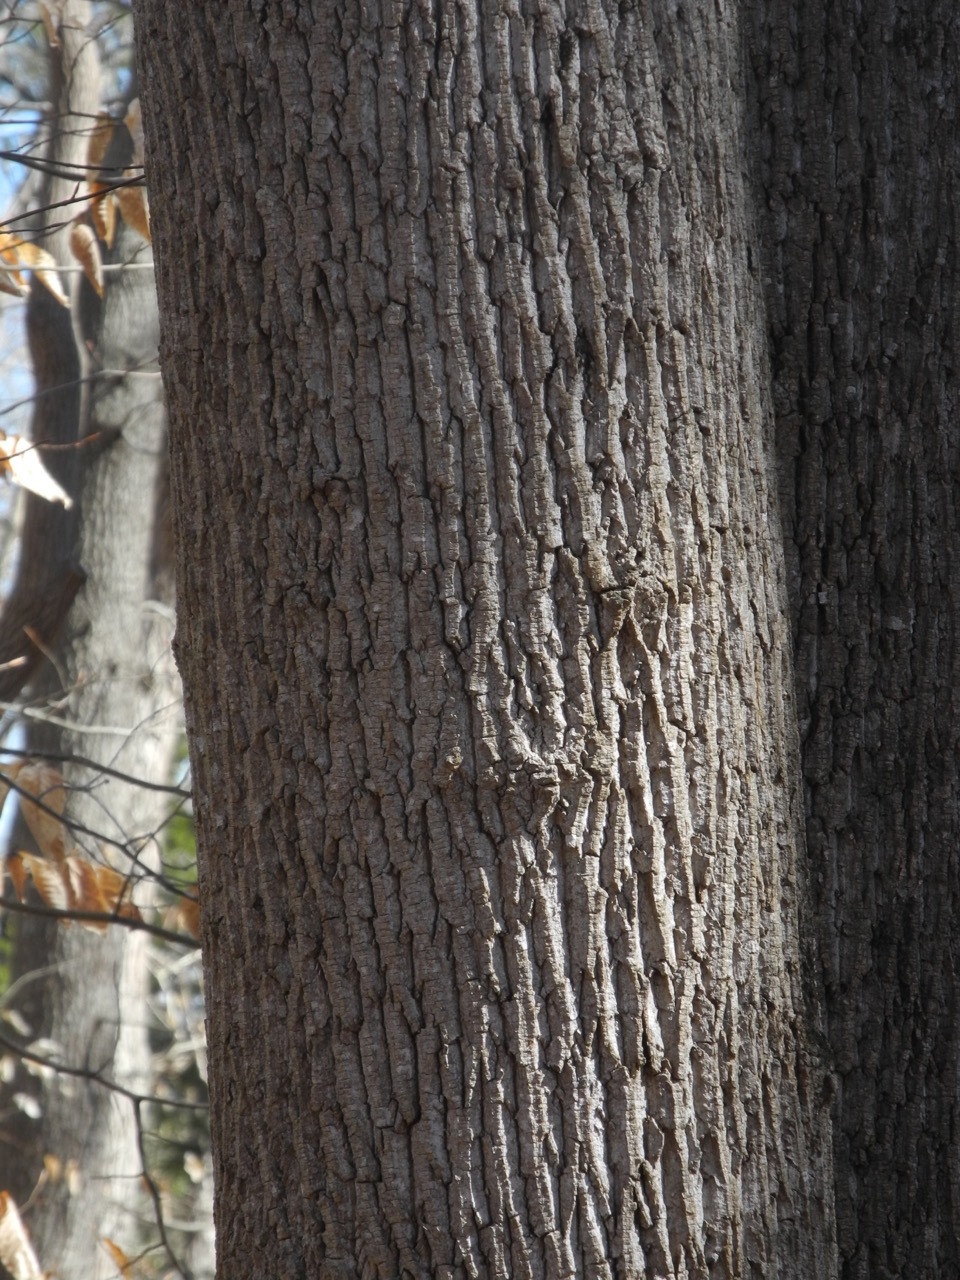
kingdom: Plantae
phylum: Tracheophyta
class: Magnoliopsida
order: Magnoliales
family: Magnoliaceae
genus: Liriodendron
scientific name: Liriodendron tulipifera
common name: Tulip tree
